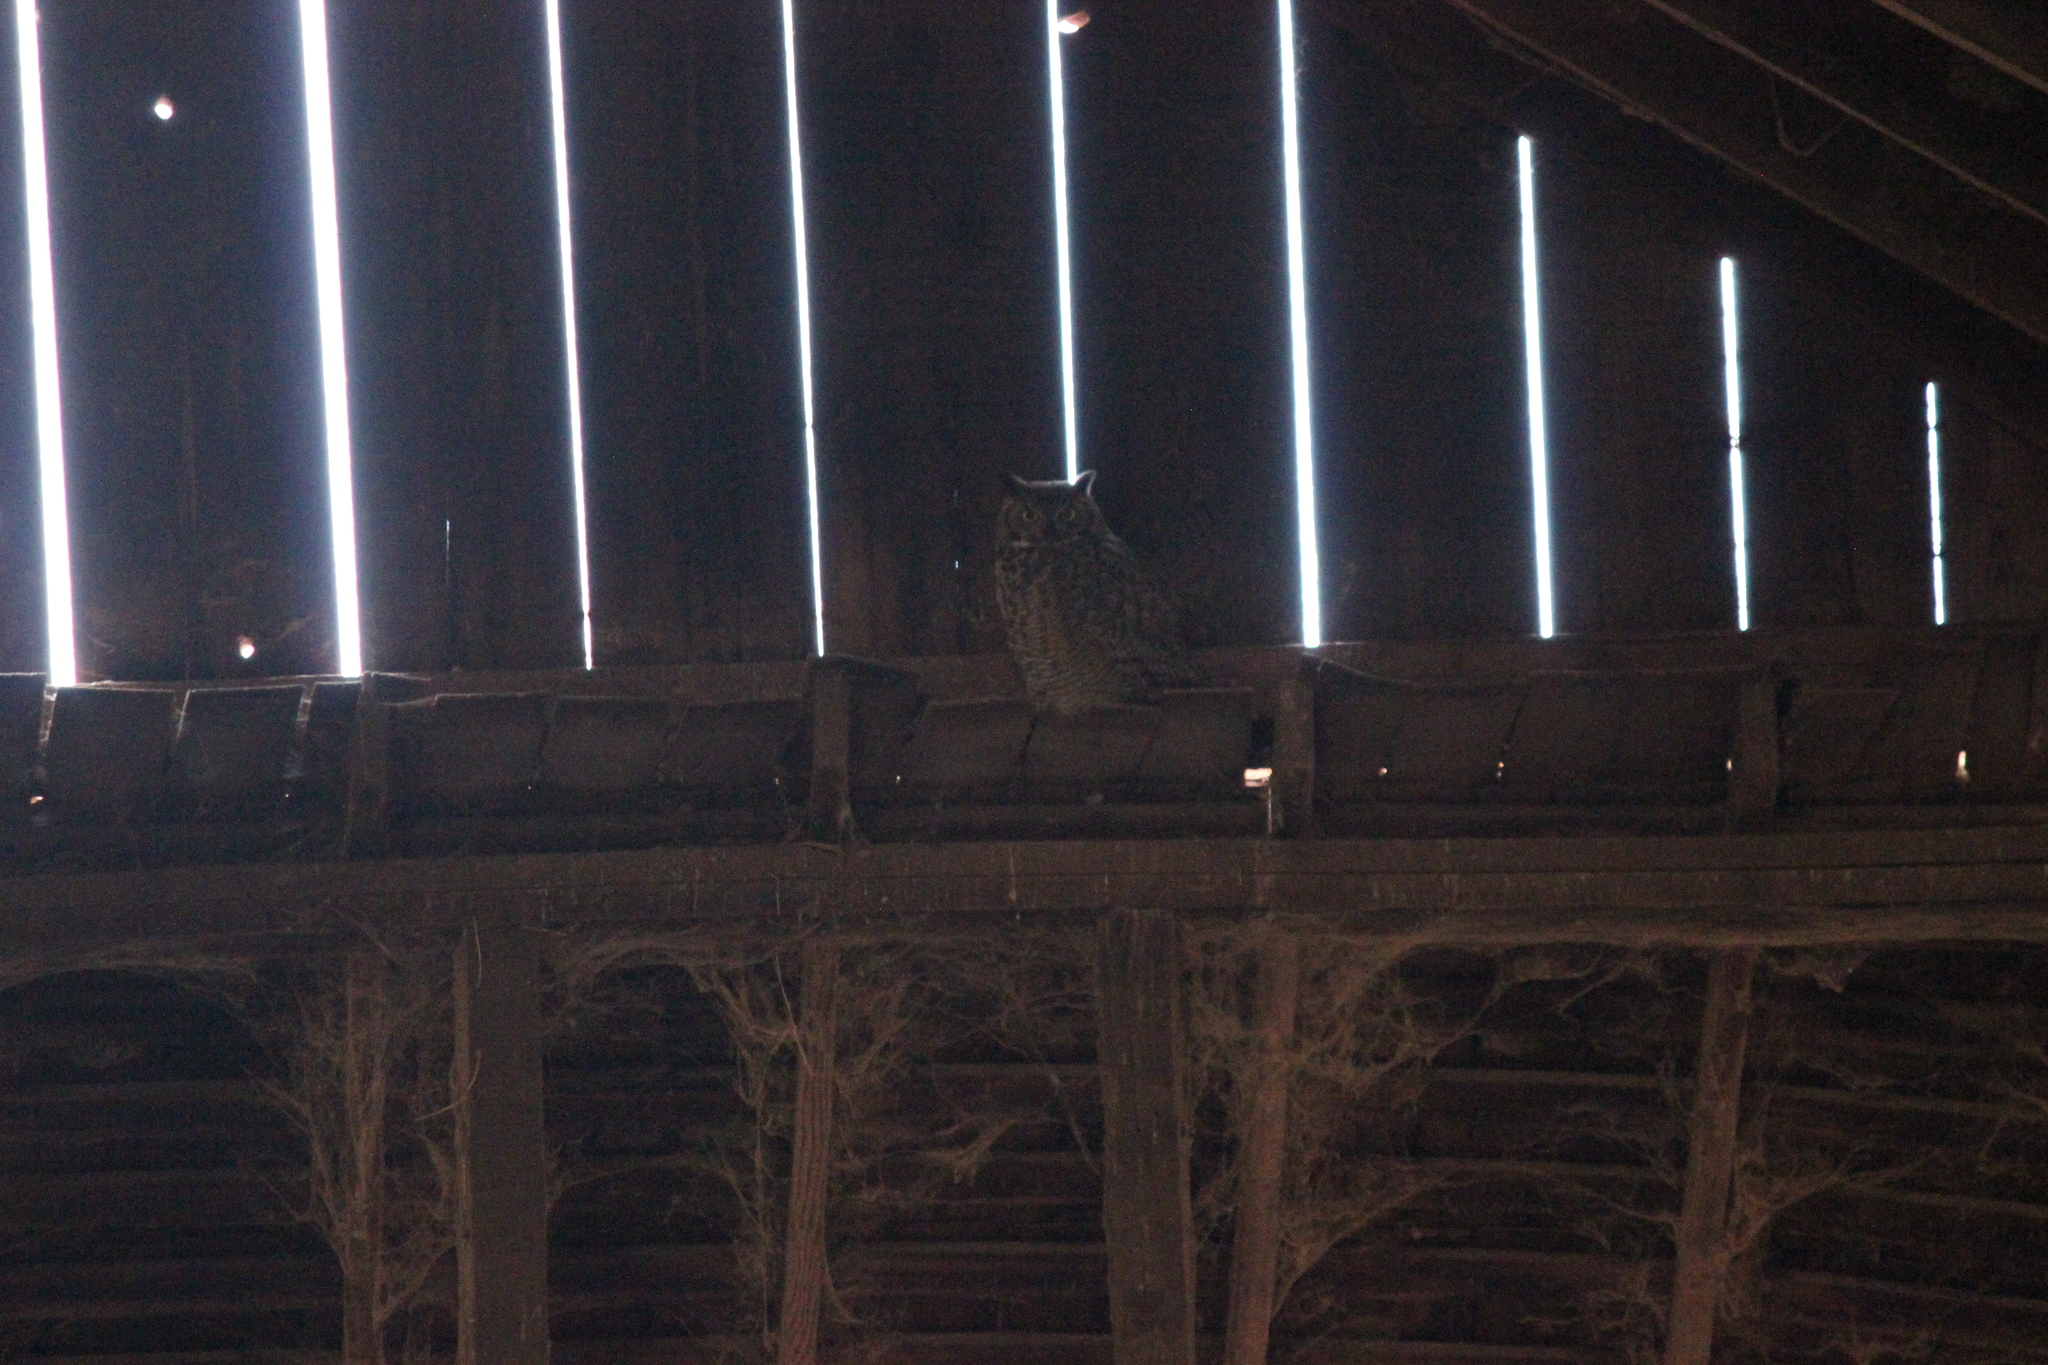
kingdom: Animalia
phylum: Chordata
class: Aves
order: Strigiformes
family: Strigidae
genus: Bubo
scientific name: Bubo virginianus
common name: Great horned owl
